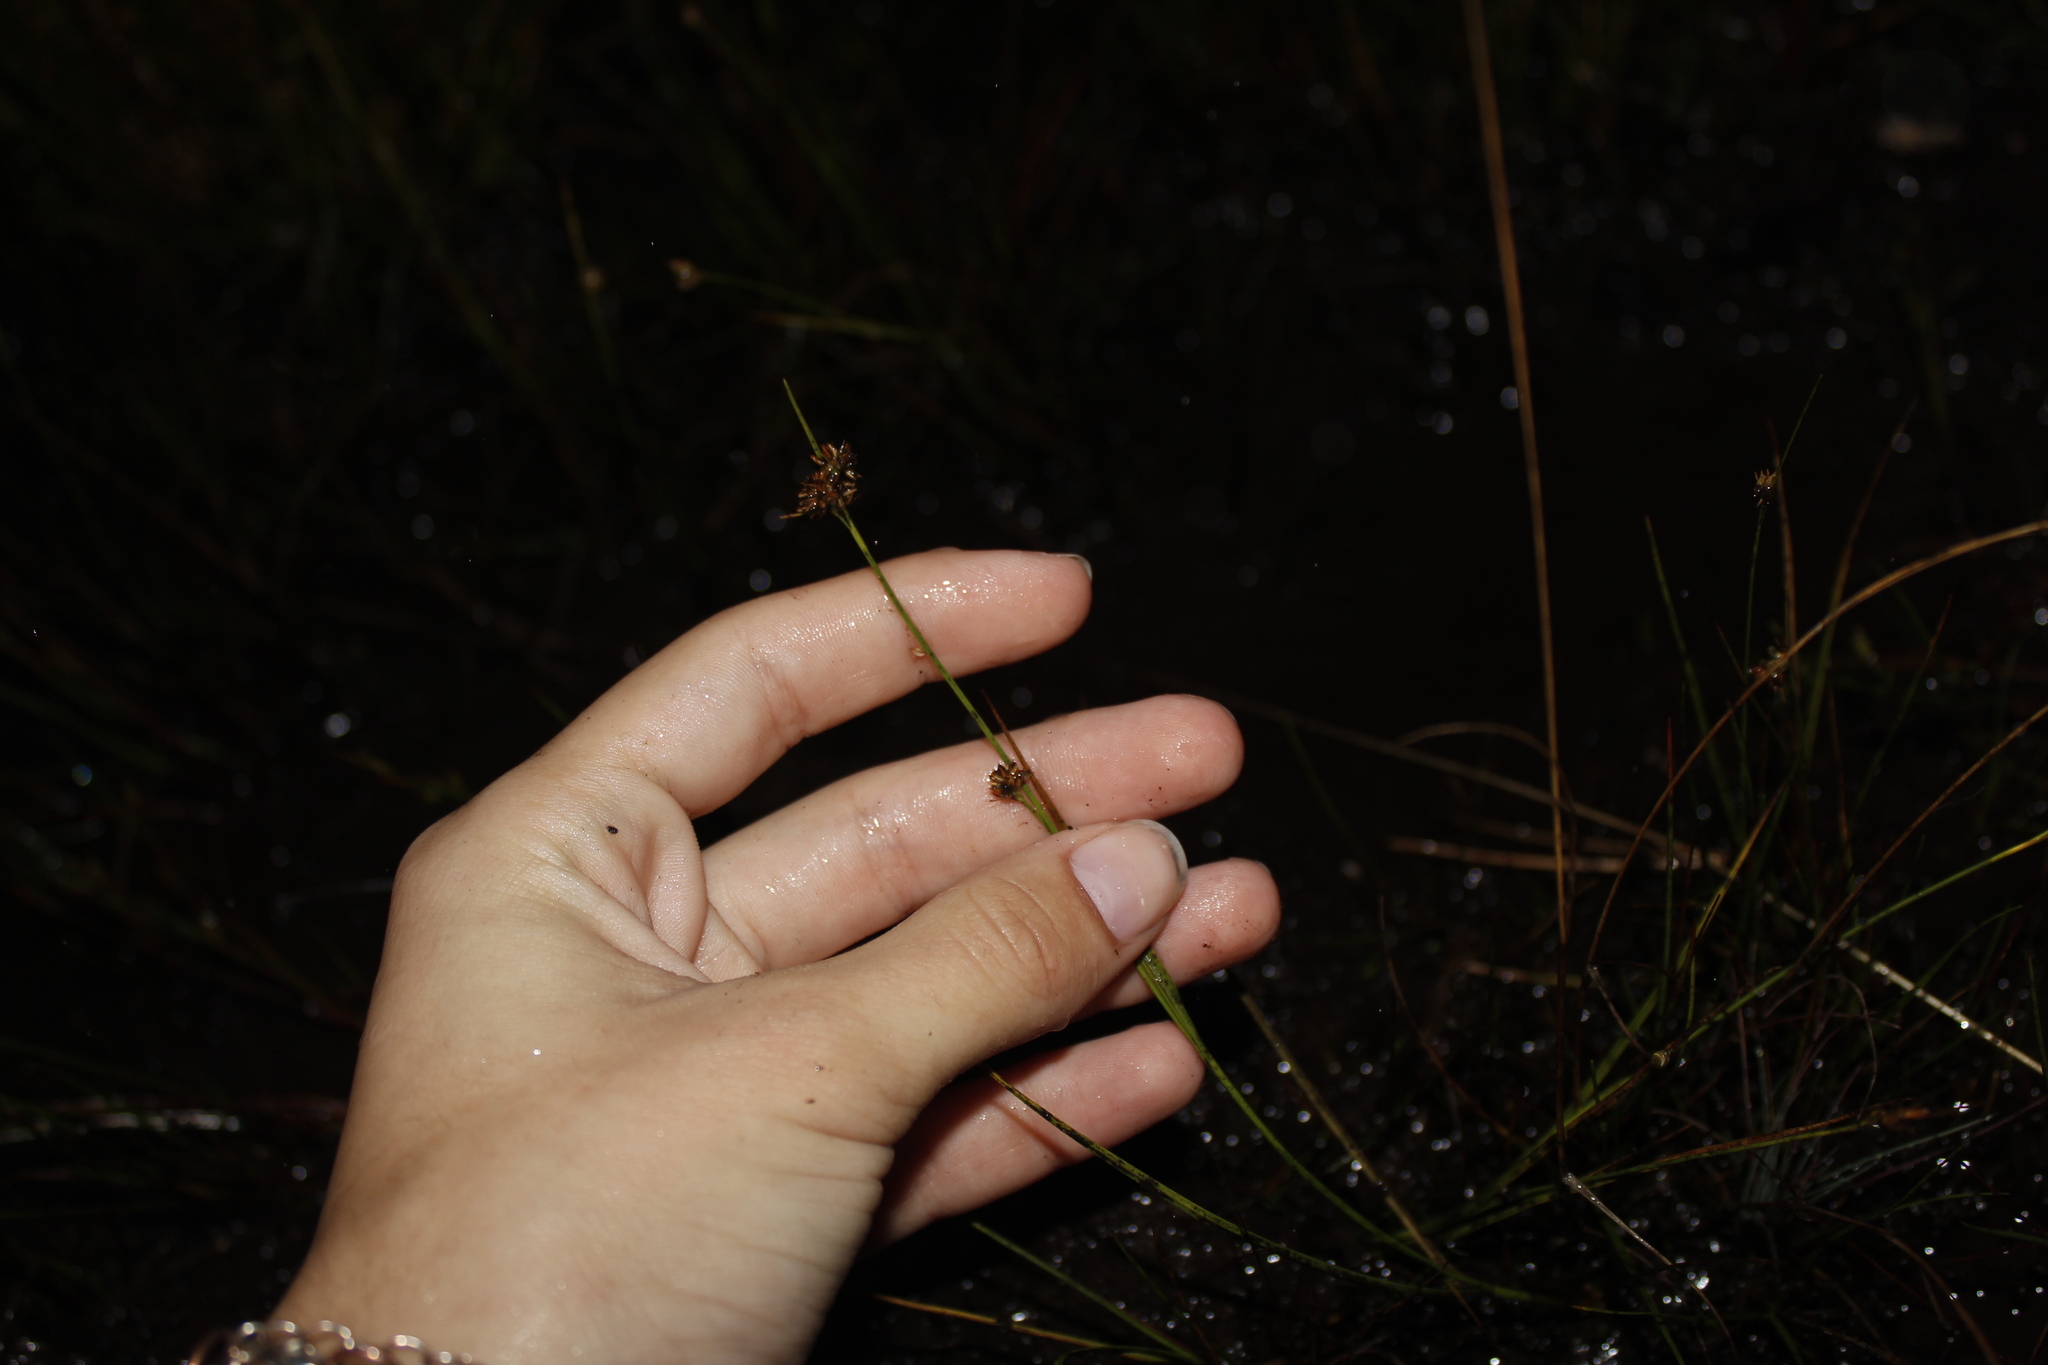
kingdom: Plantae
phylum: Tracheophyta
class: Liliopsida
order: Poales
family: Cyperaceae
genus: Rhynchospora
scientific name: Rhynchospora alba
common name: White beak-sedge
